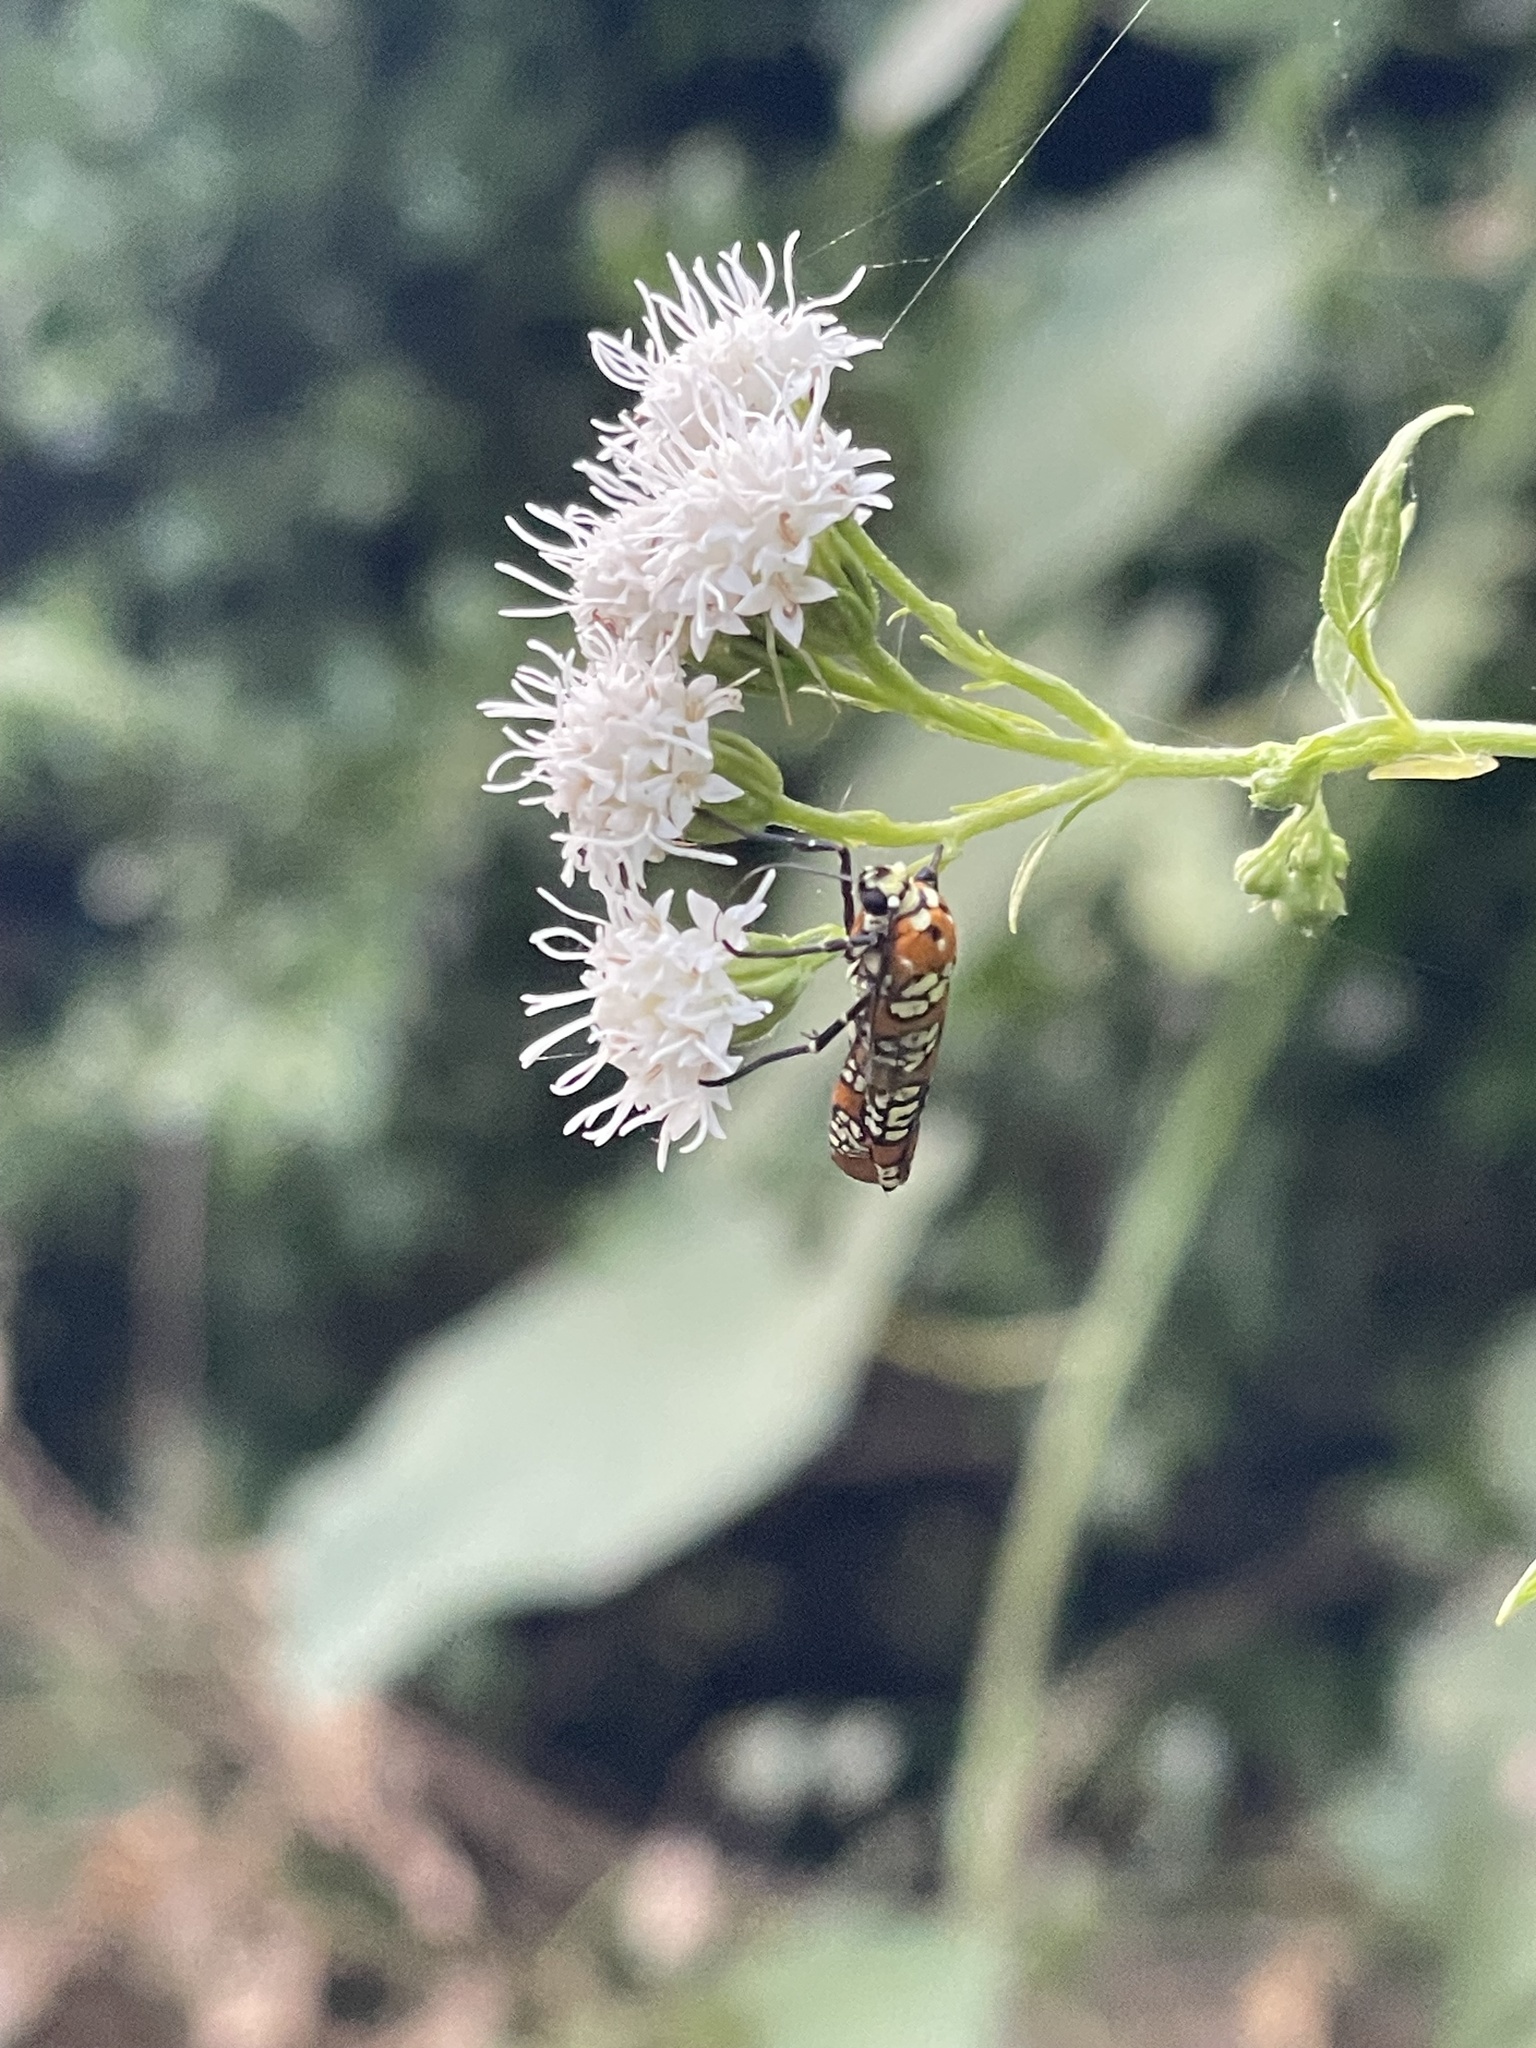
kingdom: Animalia
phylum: Arthropoda
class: Insecta
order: Lepidoptera
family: Attevidae
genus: Atteva
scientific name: Atteva punctella
